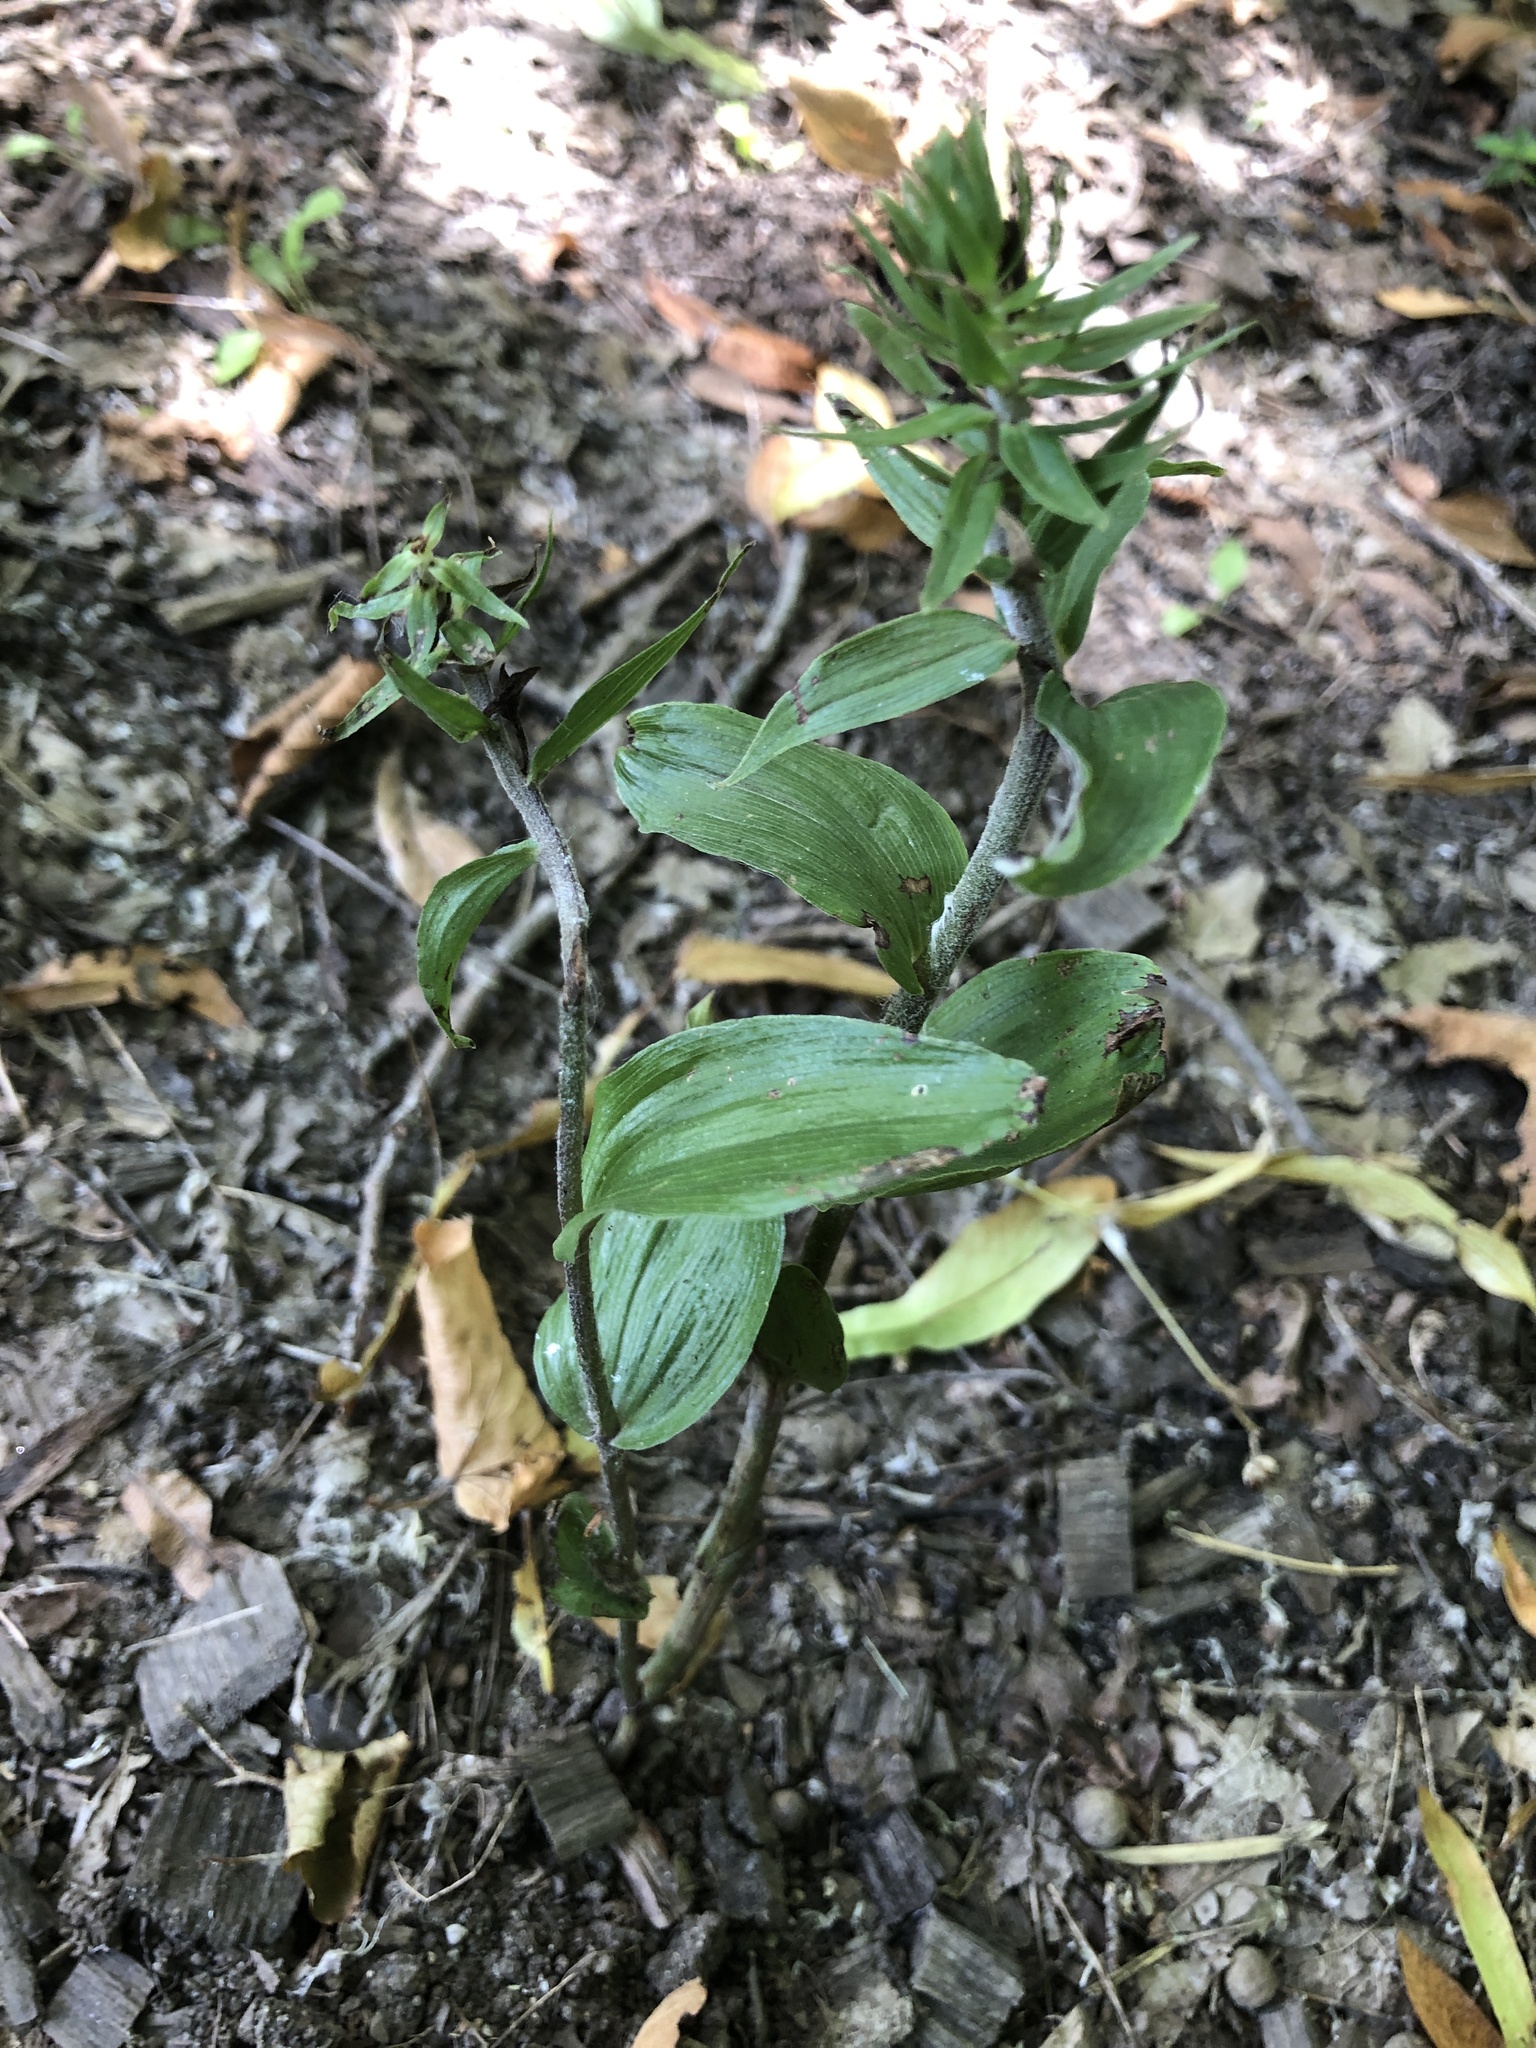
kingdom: Plantae
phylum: Tracheophyta
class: Liliopsida
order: Asparagales
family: Orchidaceae
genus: Epipactis
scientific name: Epipactis helleborine
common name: Broad-leaved helleborine
